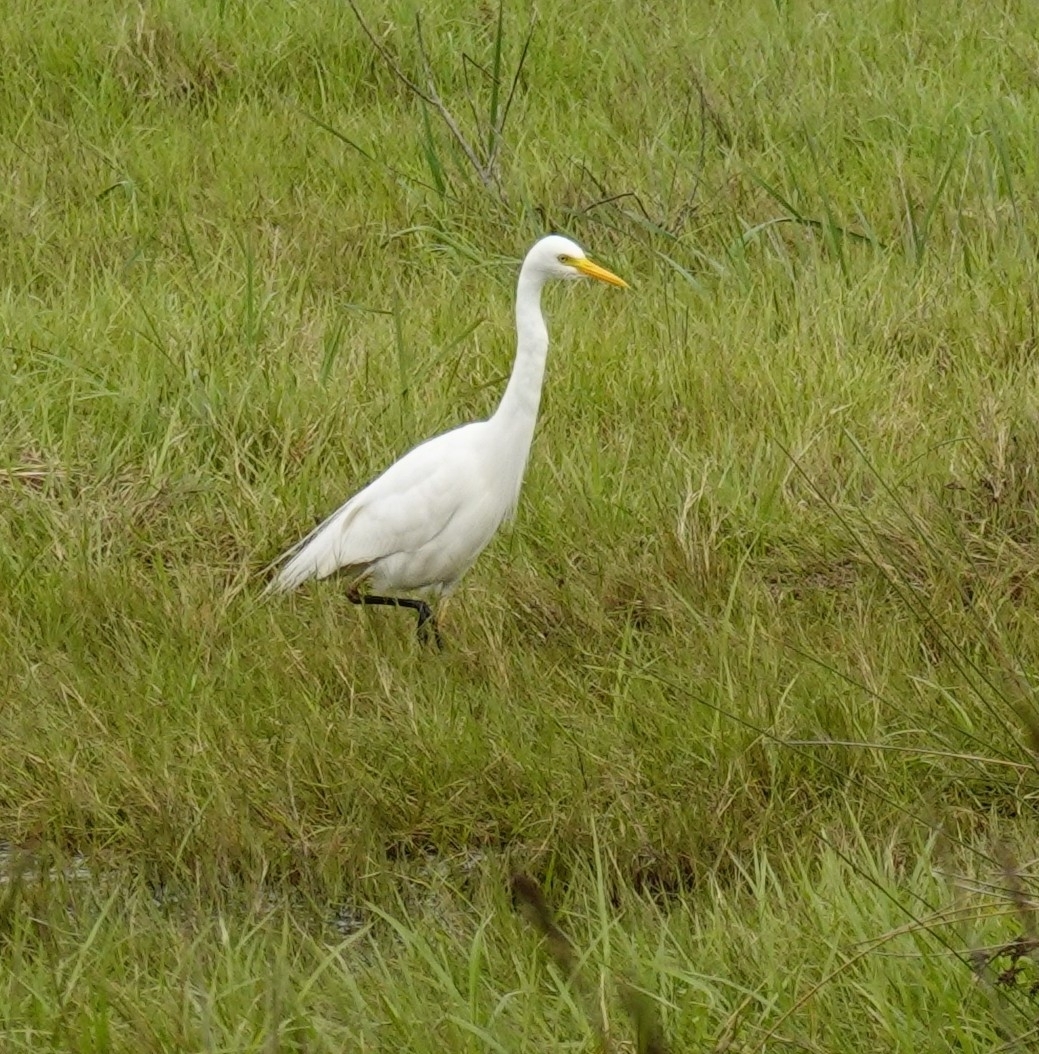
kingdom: Animalia
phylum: Chordata
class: Aves
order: Pelecaniformes
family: Ardeidae
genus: Egretta
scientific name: Egretta intermedia
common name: Intermediate egret
